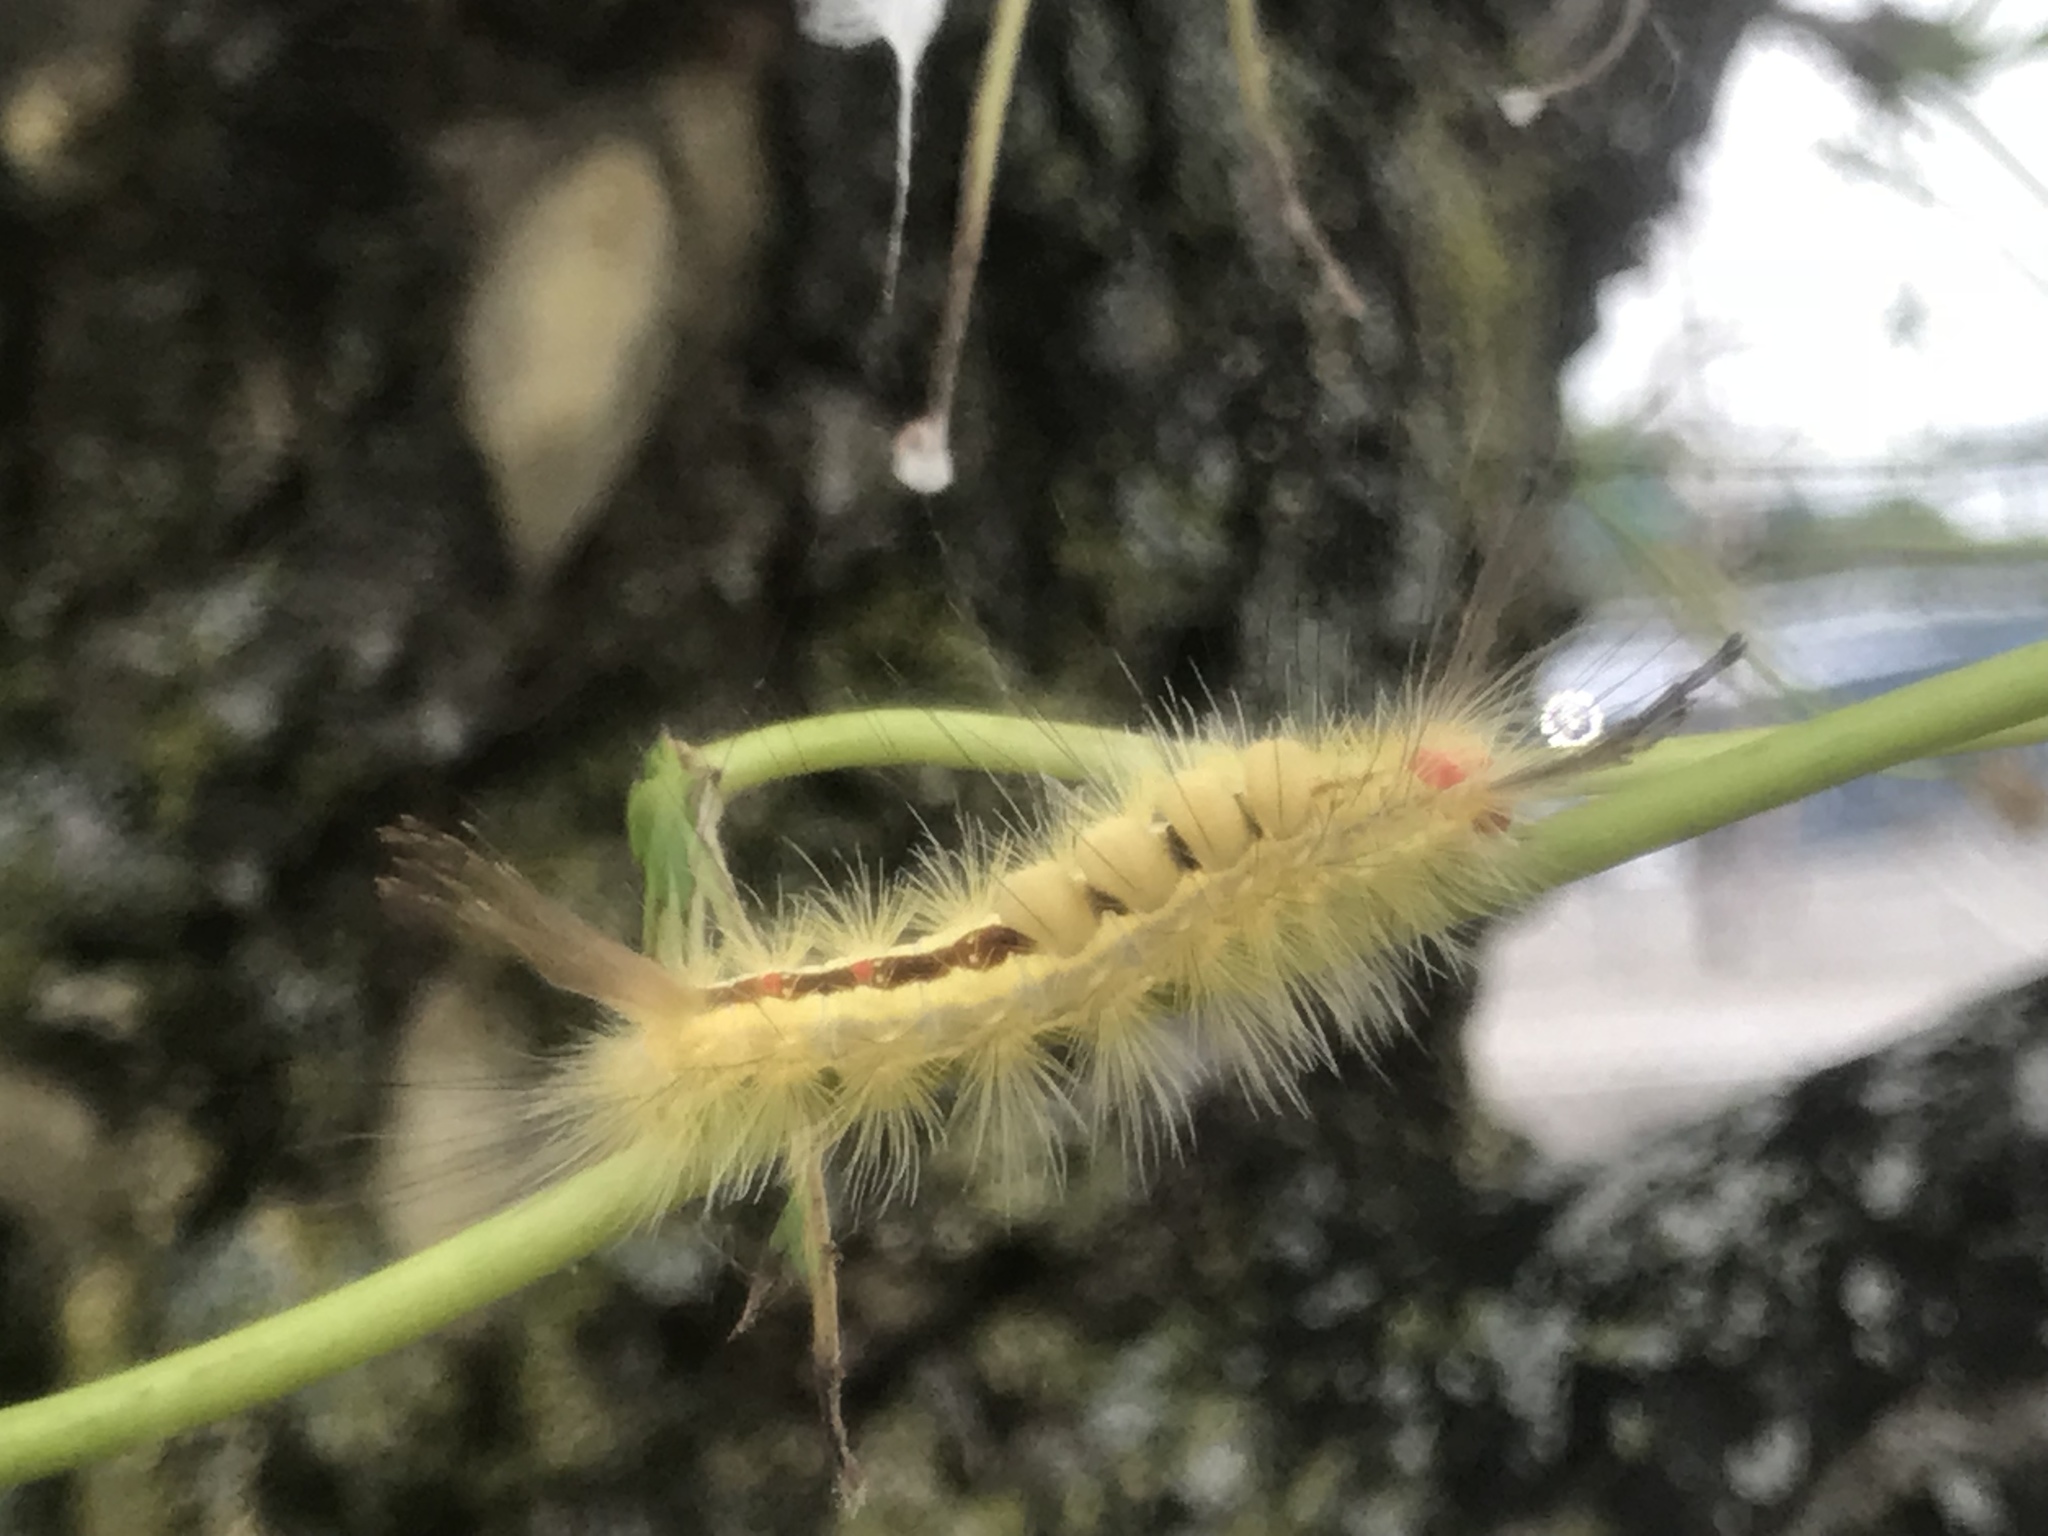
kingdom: Animalia
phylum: Arthropoda
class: Insecta
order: Lepidoptera
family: Erebidae
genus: Orgyia
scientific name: Orgyia leucostigma
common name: White-marked tussock moth
